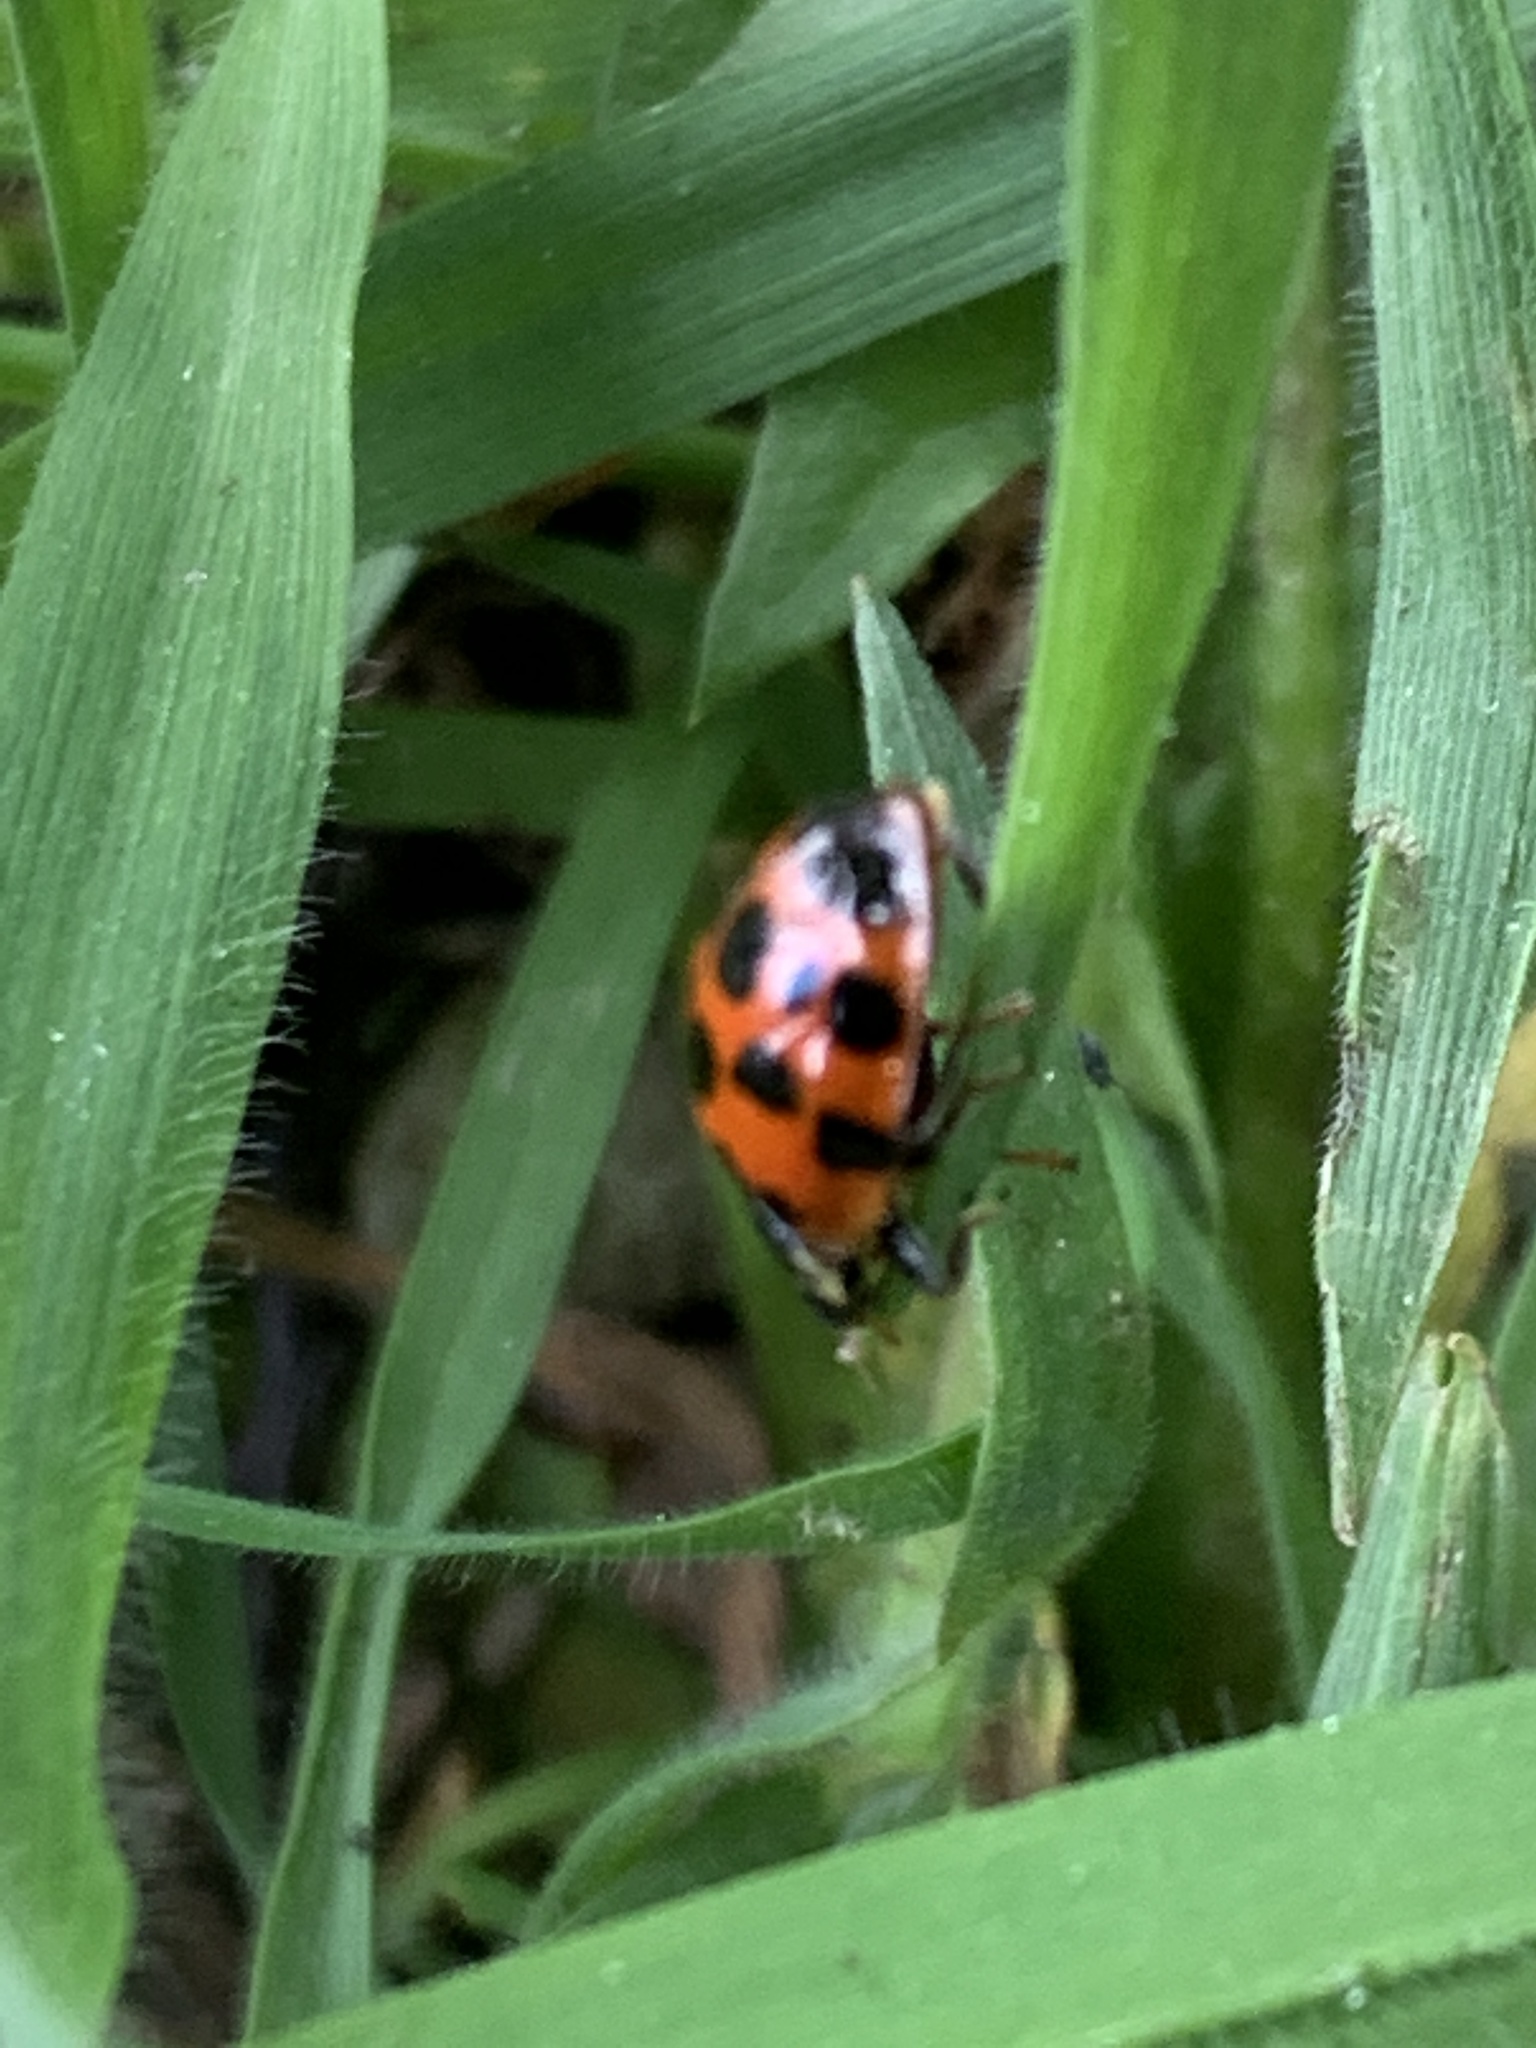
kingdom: Animalia
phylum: Arthropoda
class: Insecta
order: Coleoptera
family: Coccinellidae
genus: Harmonia
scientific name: Harmonia axyridis
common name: Harlequin ladybird
